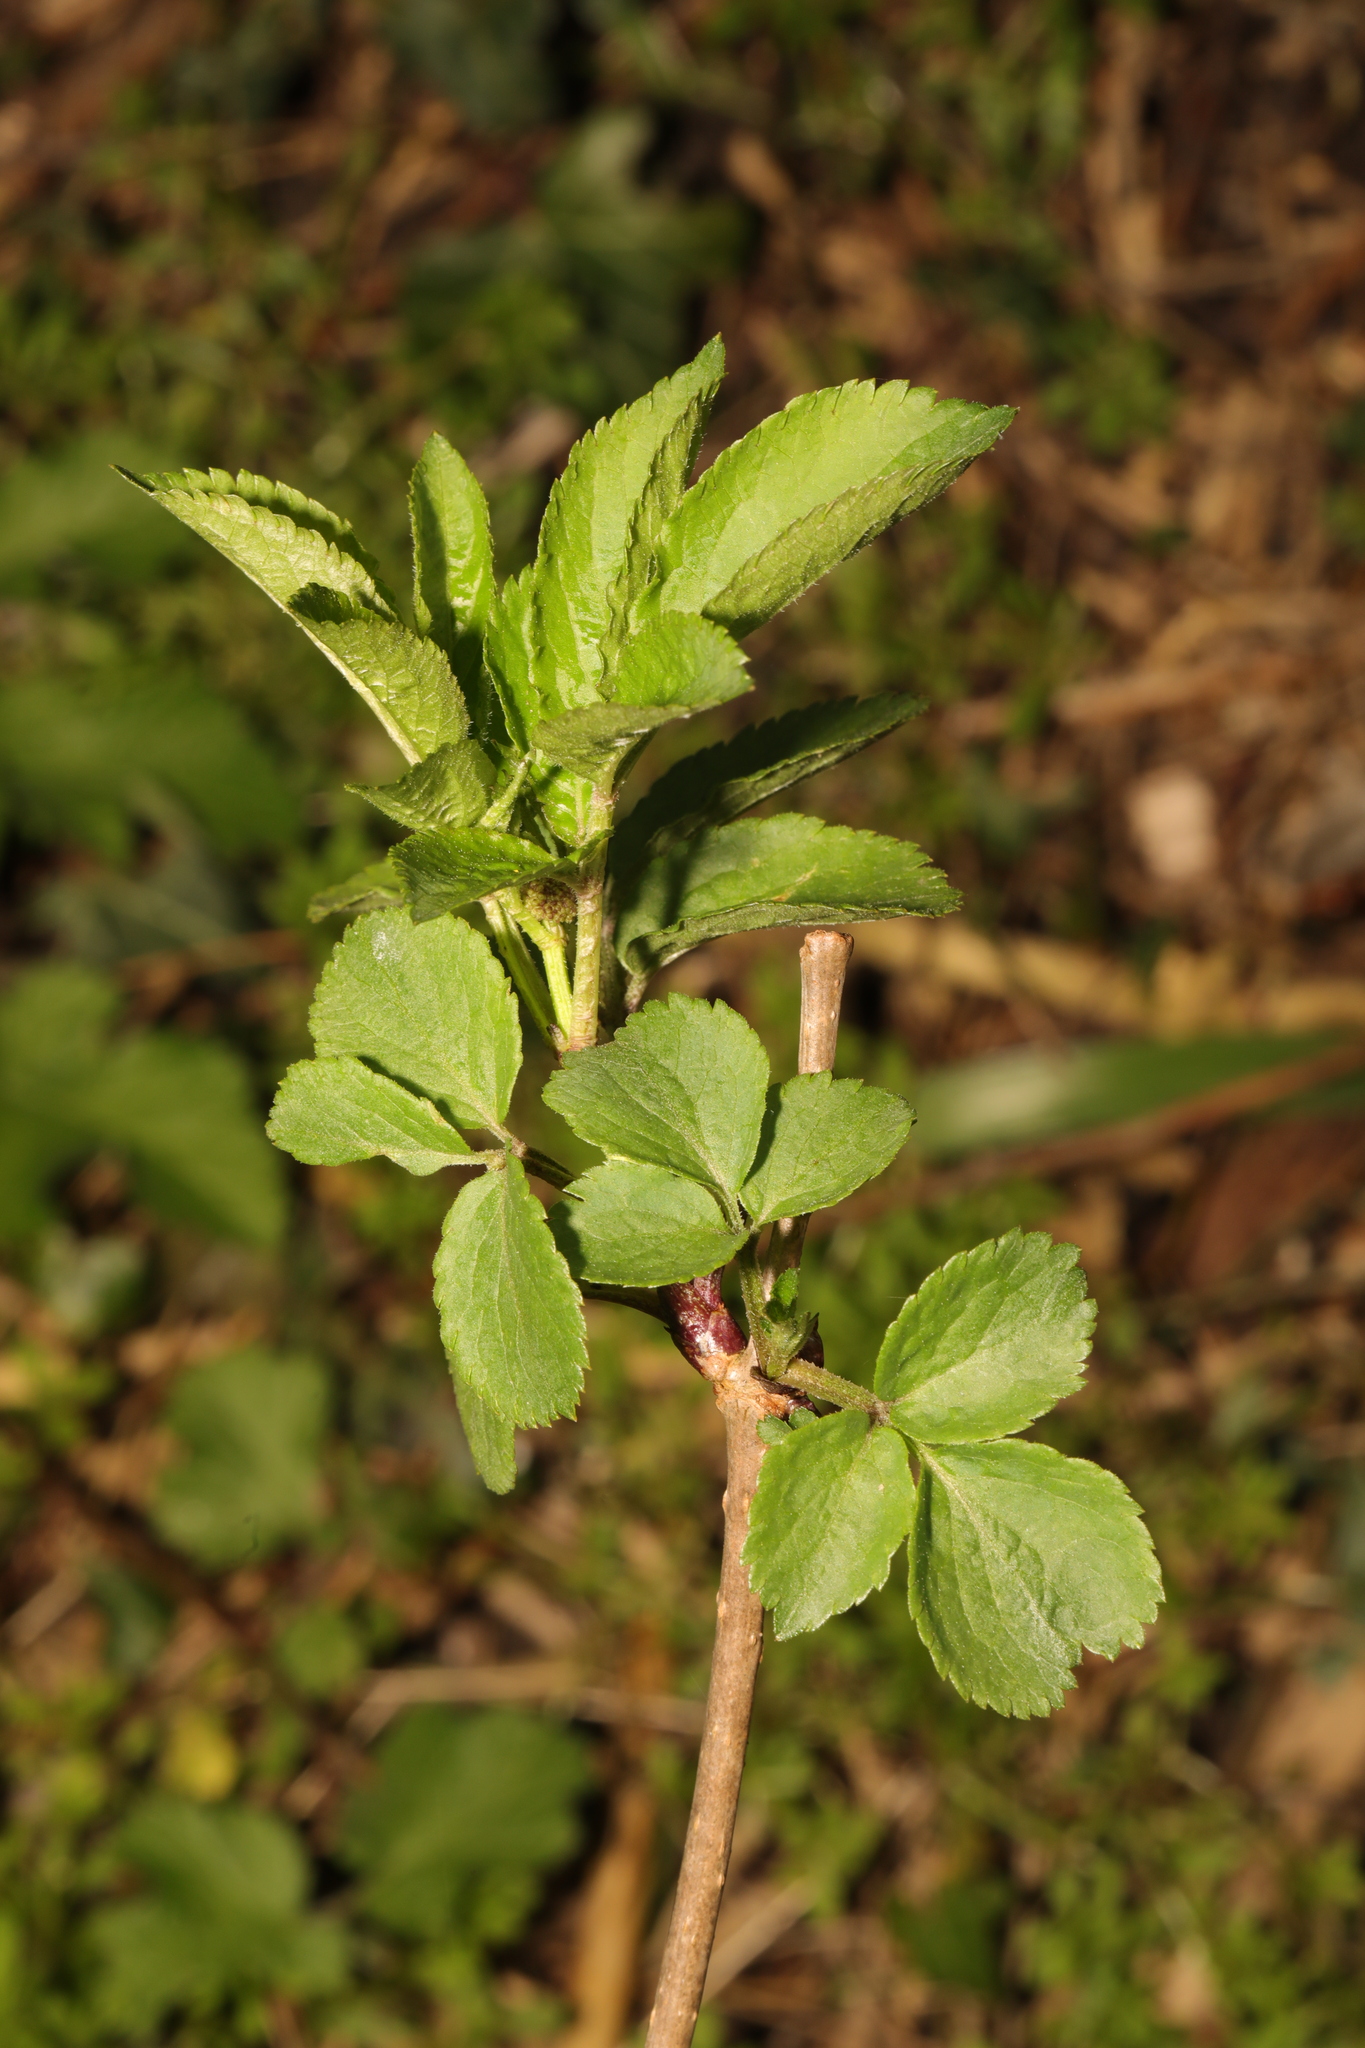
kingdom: Plantae
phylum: Tracheophyta
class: Magnoliopsida
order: Dipsacales
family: Viburnaceae
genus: Sambucus
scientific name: Sambucus nigra
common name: Elder
